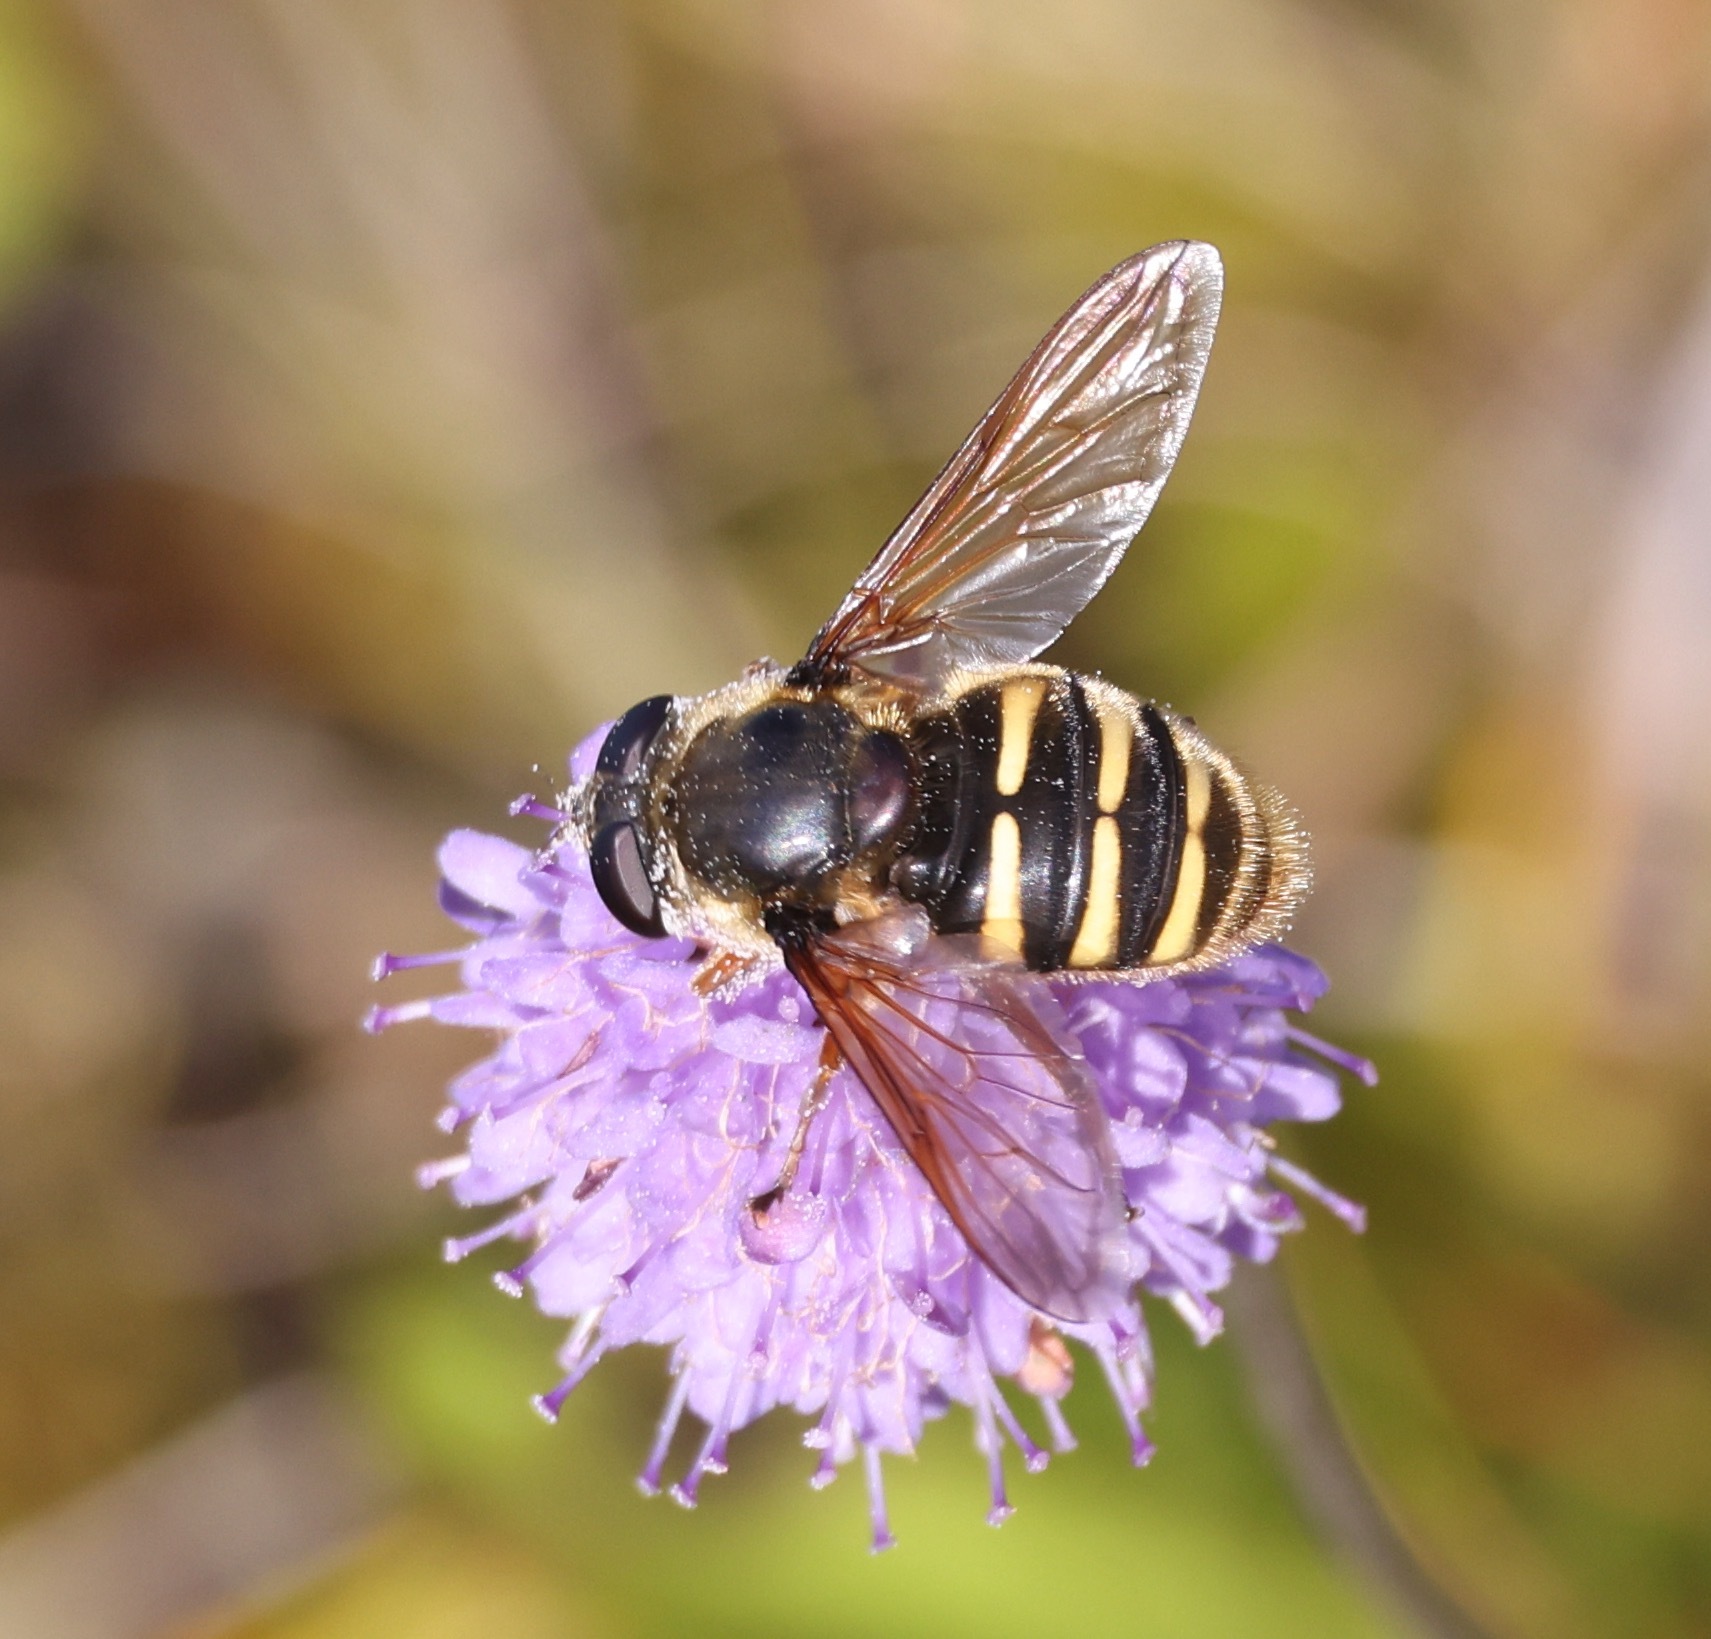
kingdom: Animalia
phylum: Arthropoda
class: Insecta
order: Diptera
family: Syrphidae
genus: Sericomyia
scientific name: Sericomyia silentis
